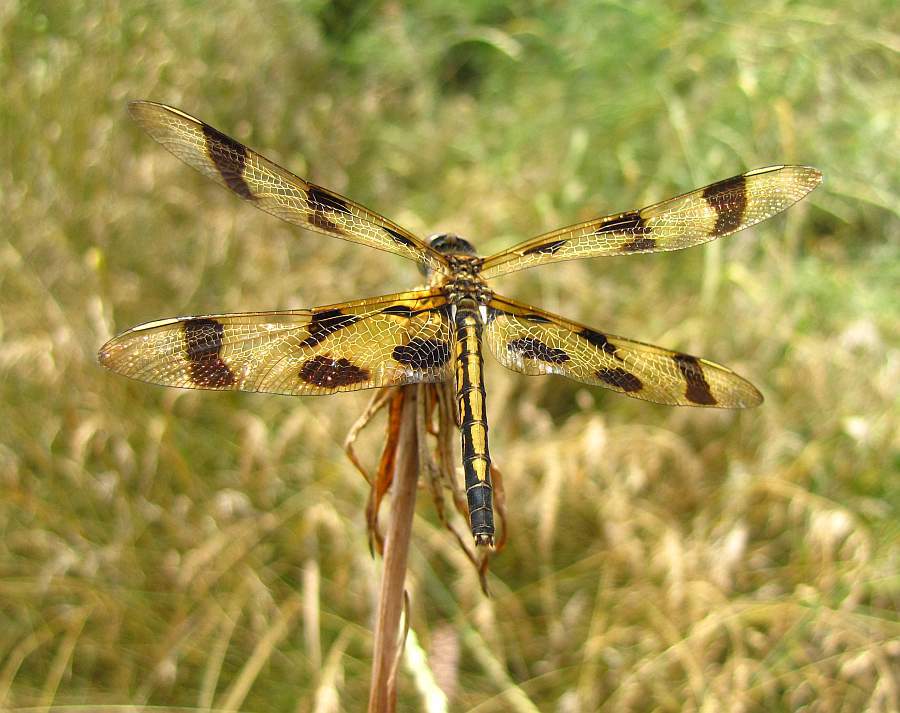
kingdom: Animalia
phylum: Arthropoda
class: Insecta
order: Odonata
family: Libellulidae
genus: Celithemis
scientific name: Celithemis eponina
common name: Halloween pennant
